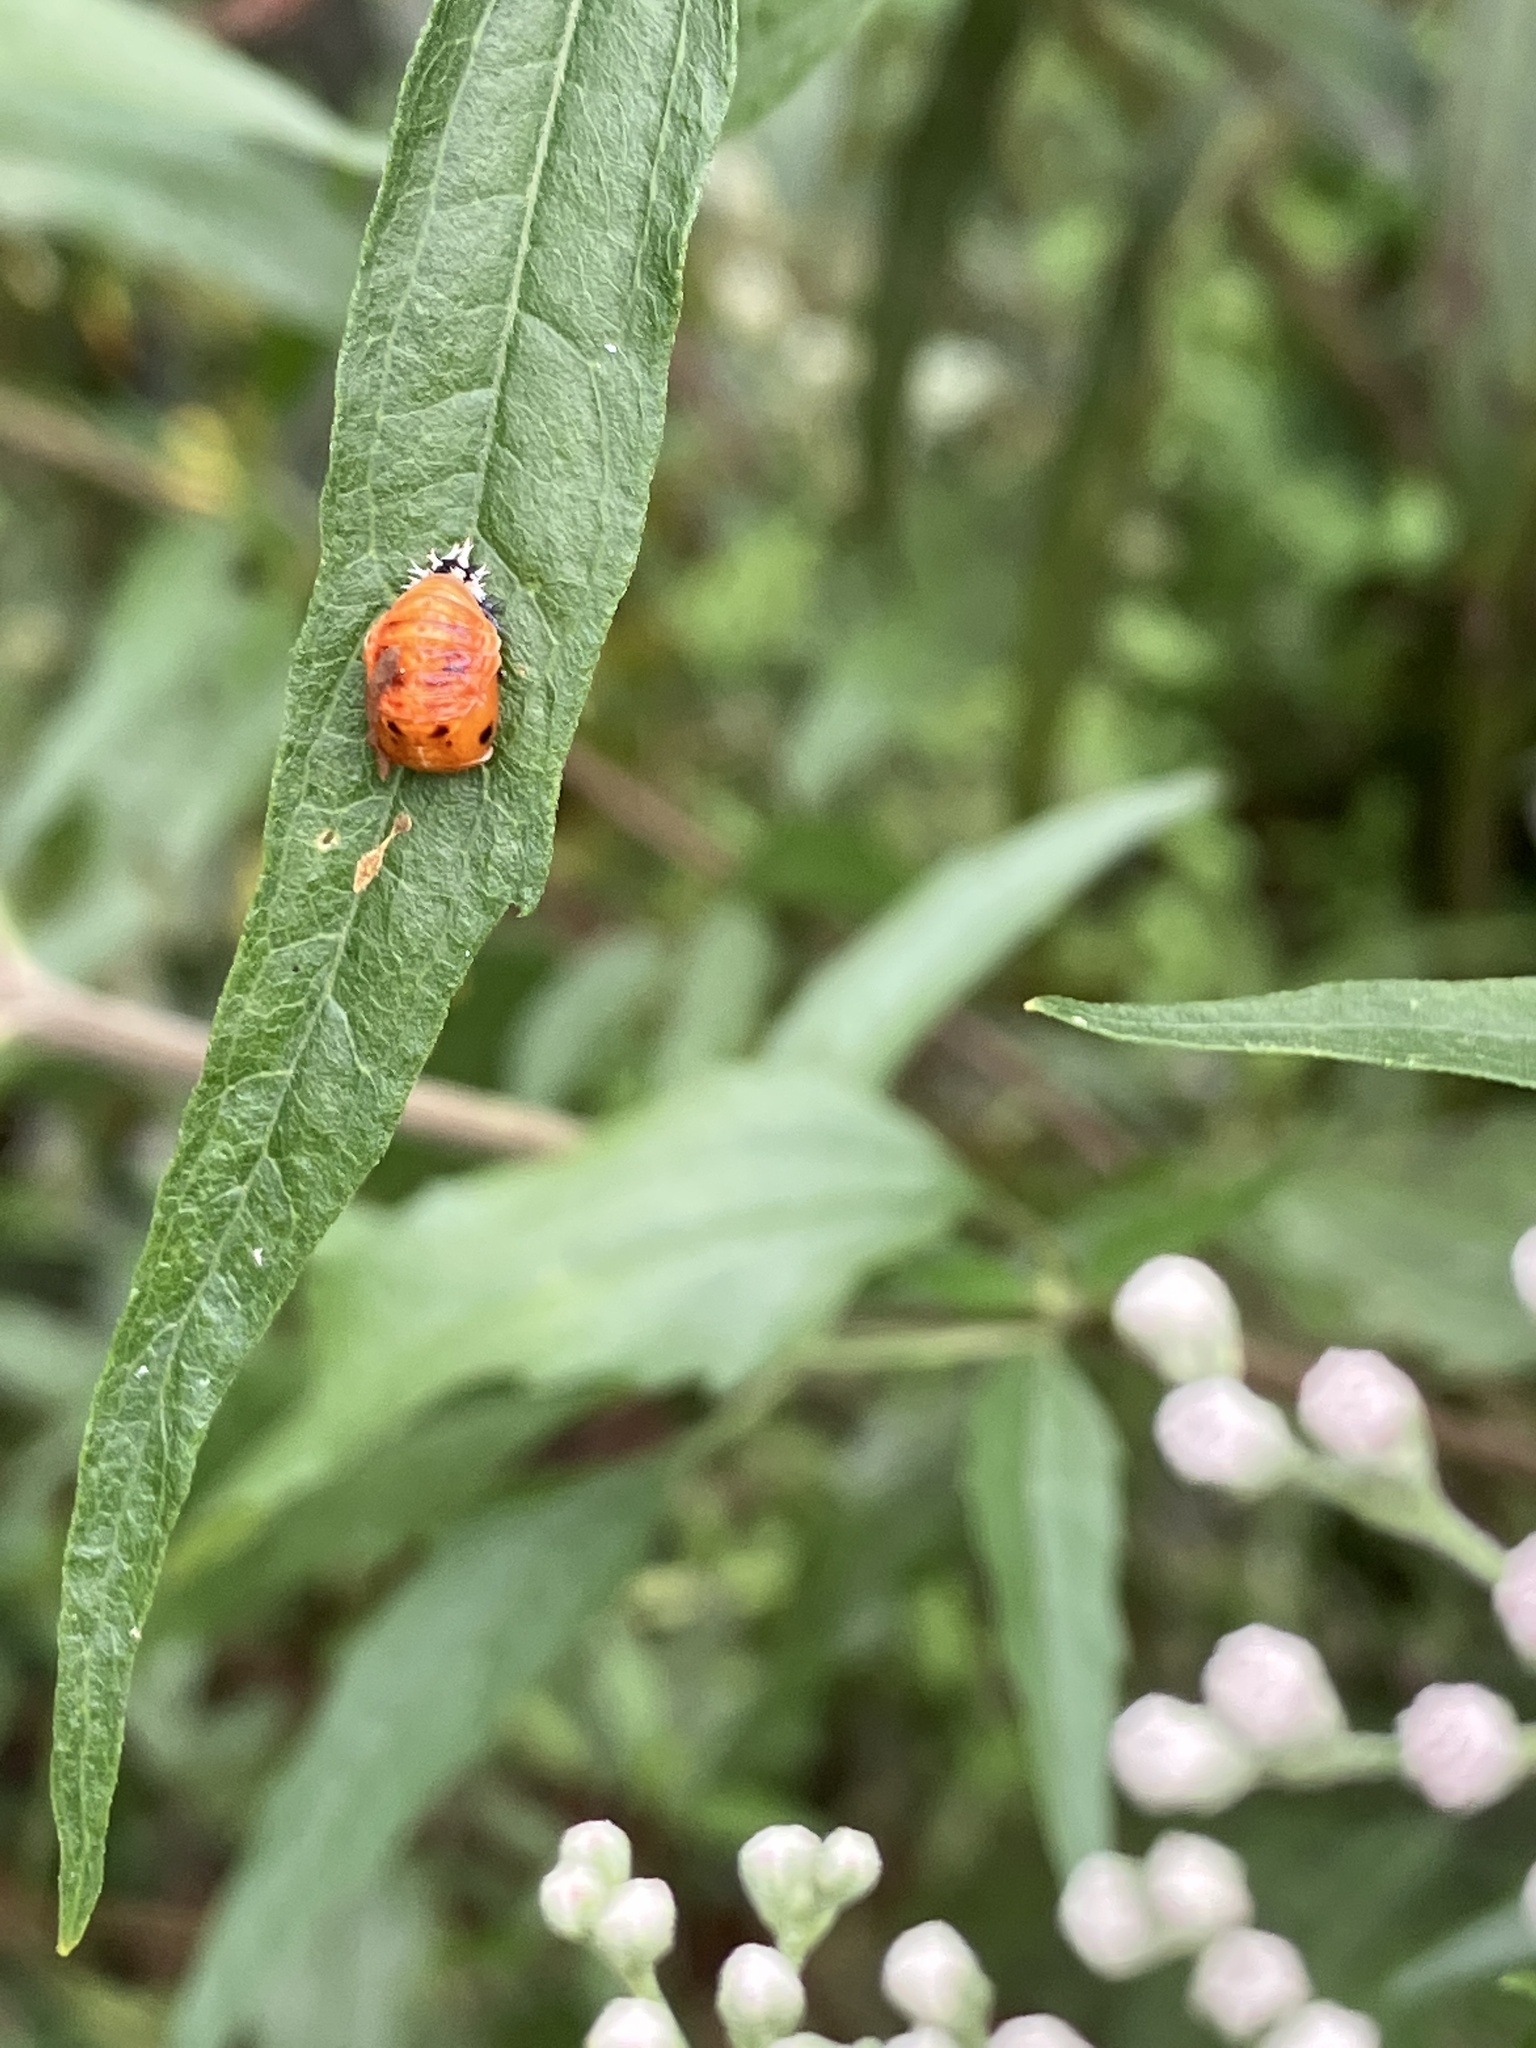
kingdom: Animalia
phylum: Arthropoda
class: Insecta
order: Coleoptera
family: Coccinellidae
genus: Harmonia
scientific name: Harmonia axyridis
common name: Harlequin ladybird
